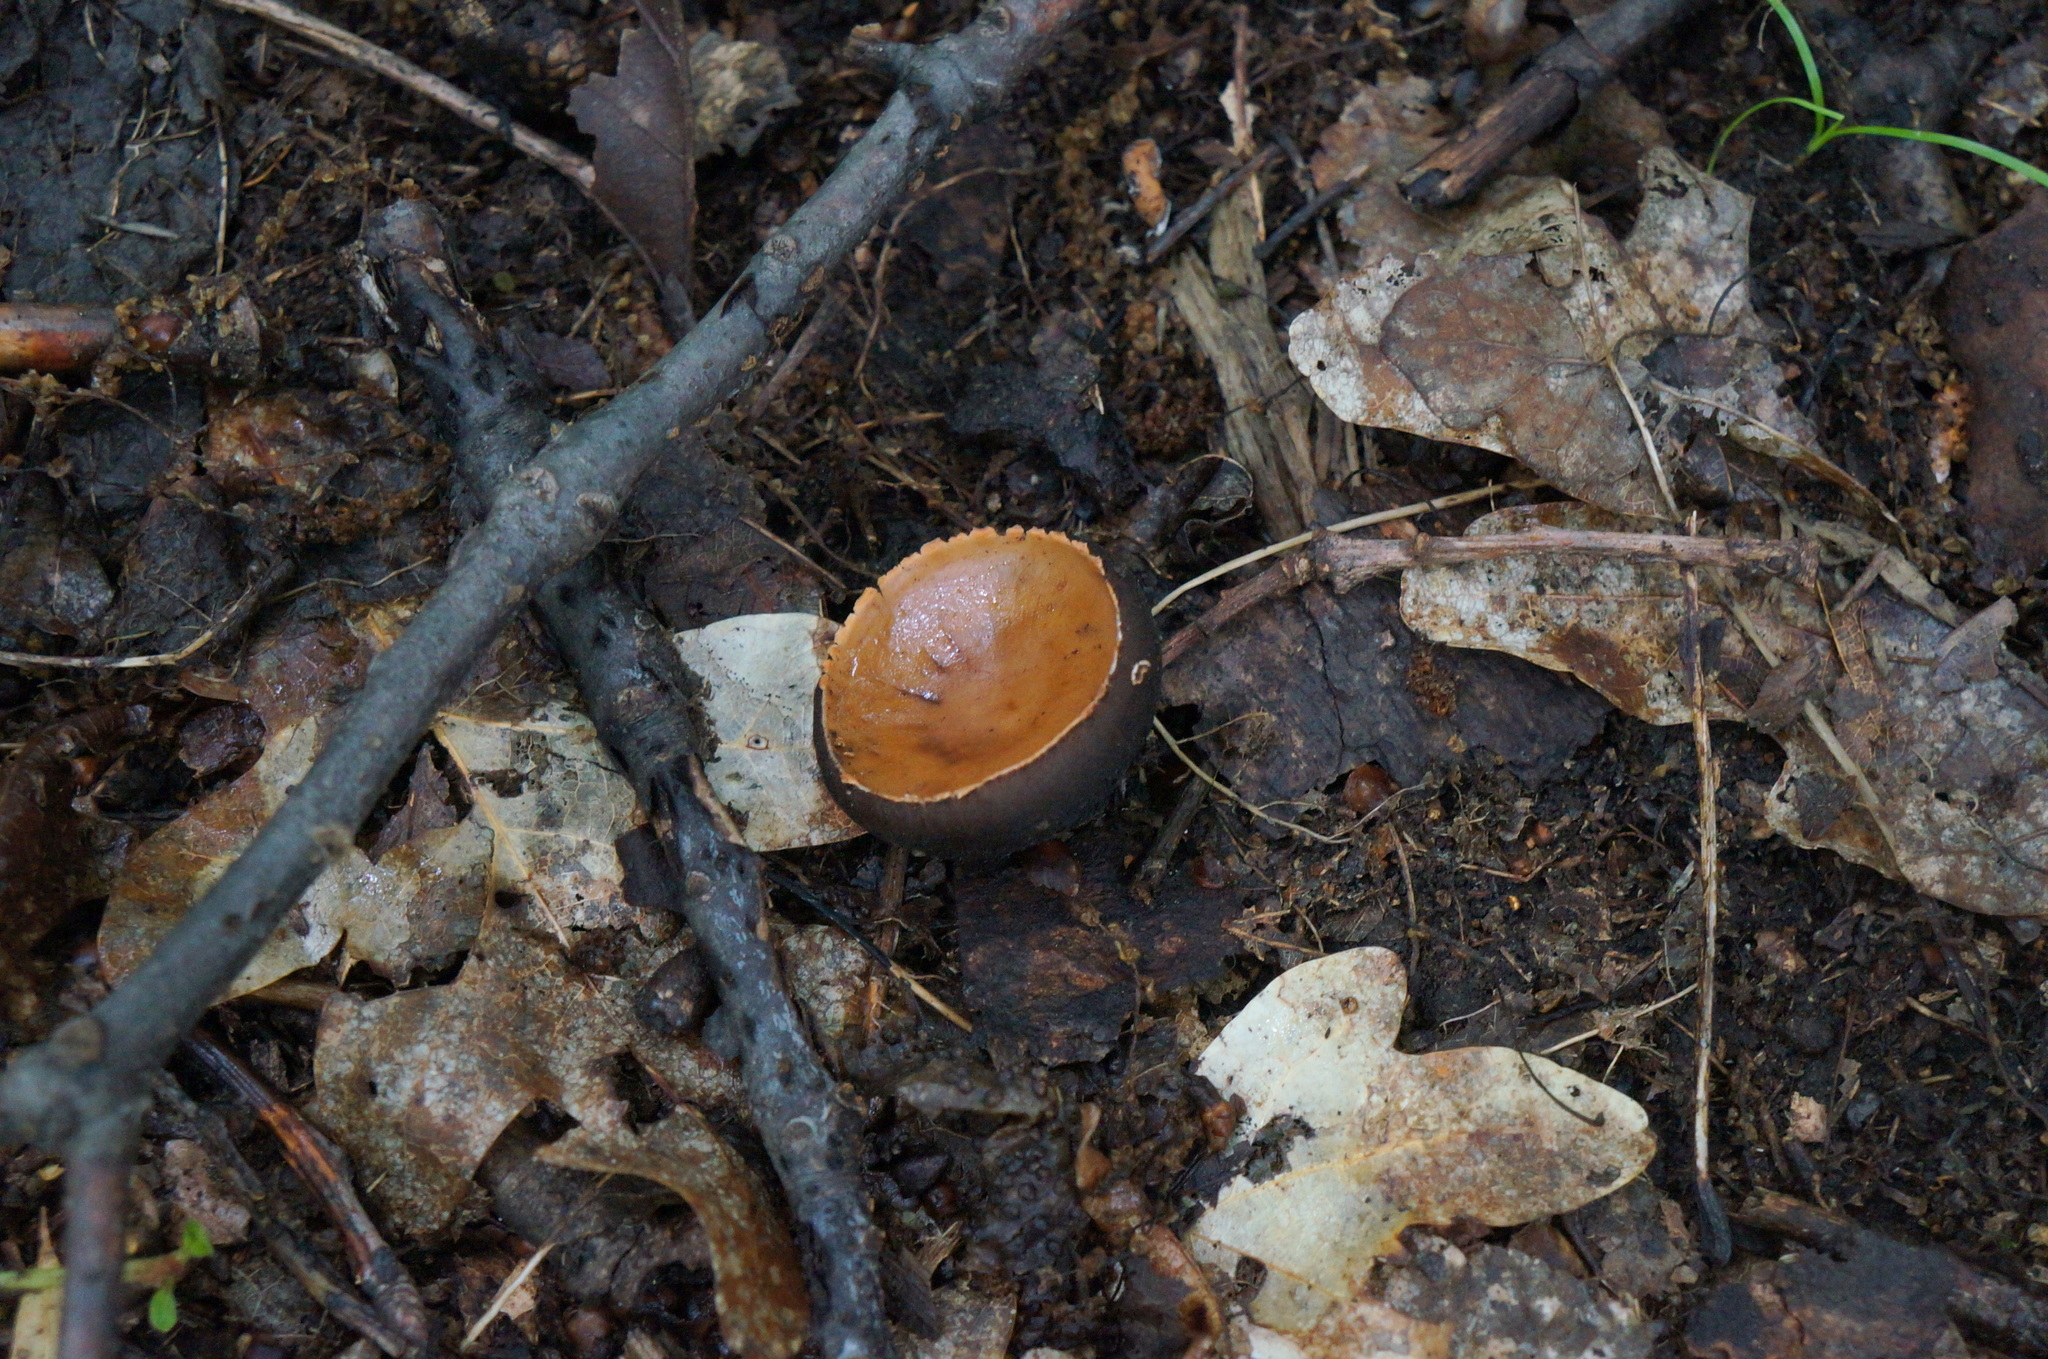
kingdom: Fungi
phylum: Ascomycota
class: Pezizomycetes
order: Pezizales
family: Sarcosomataceae
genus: Galiella
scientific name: Galiella rufa
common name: Hairy rubber cup
